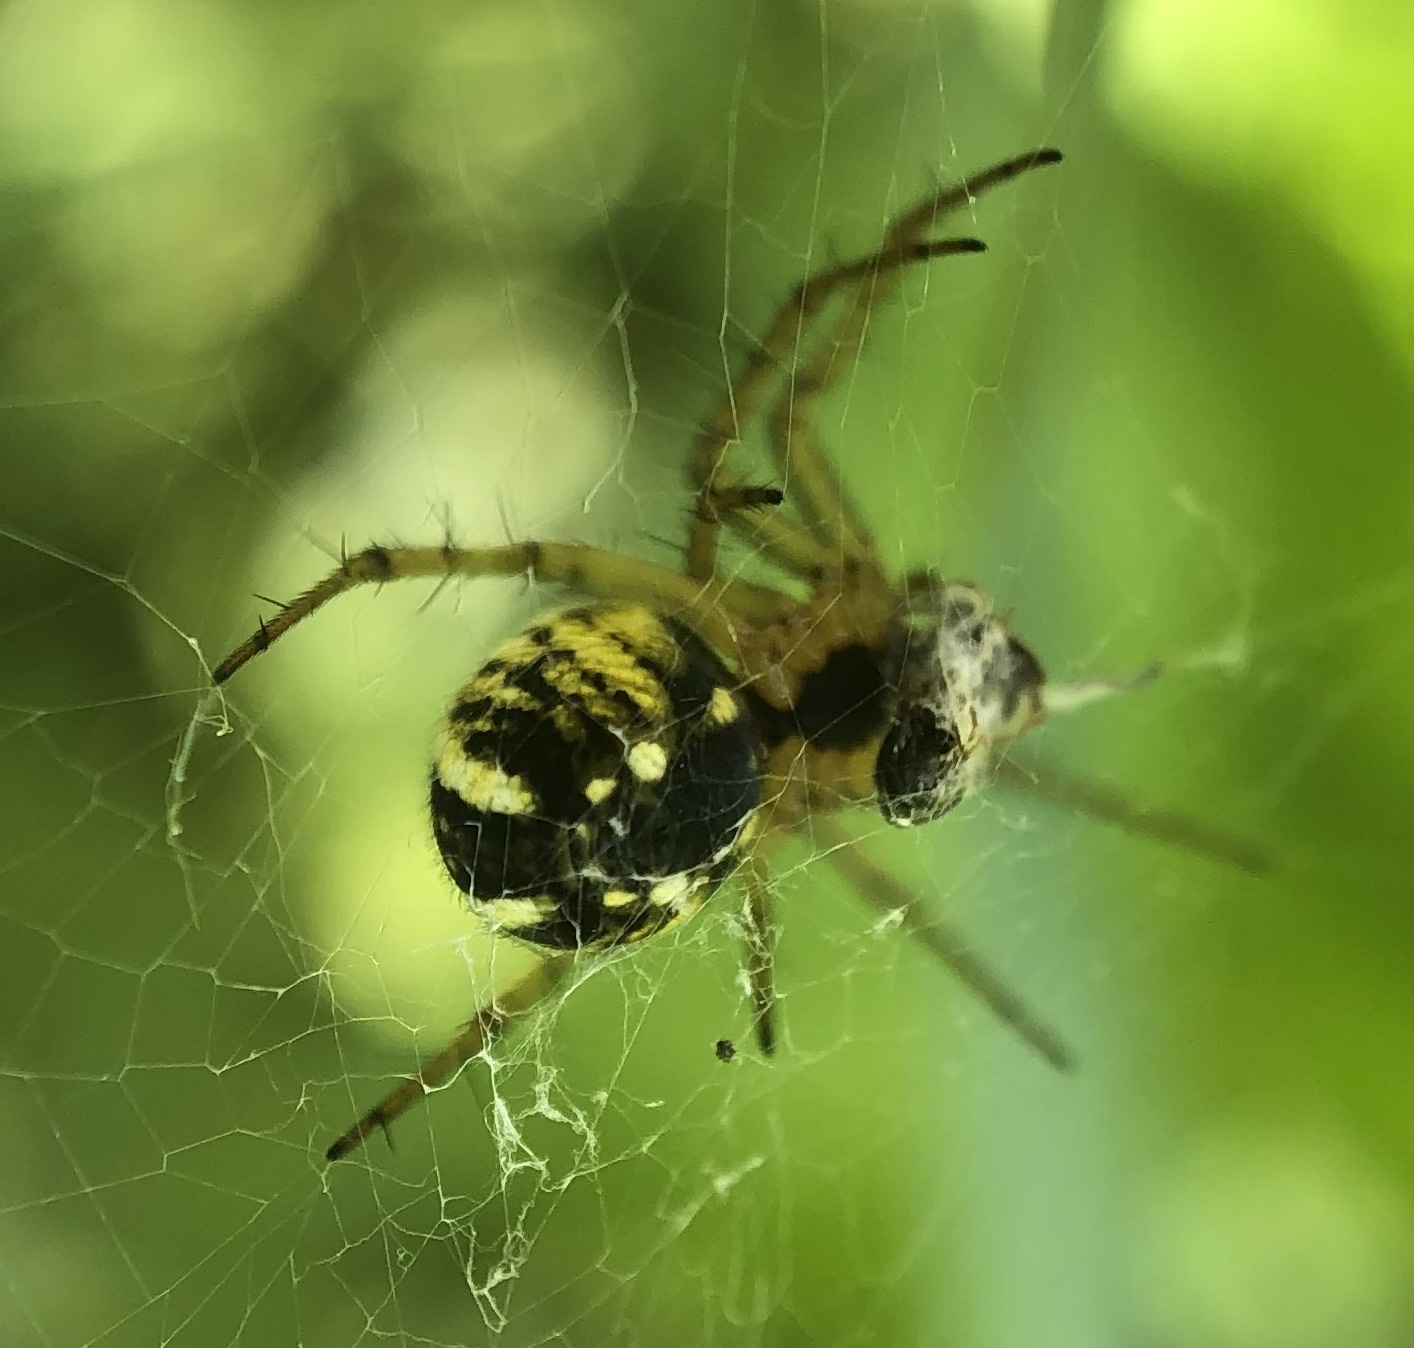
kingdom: Animalia
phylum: Arthropoda
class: Arachnida
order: Araneae
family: Araneidae
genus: Mangora
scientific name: Mangora acalypha
